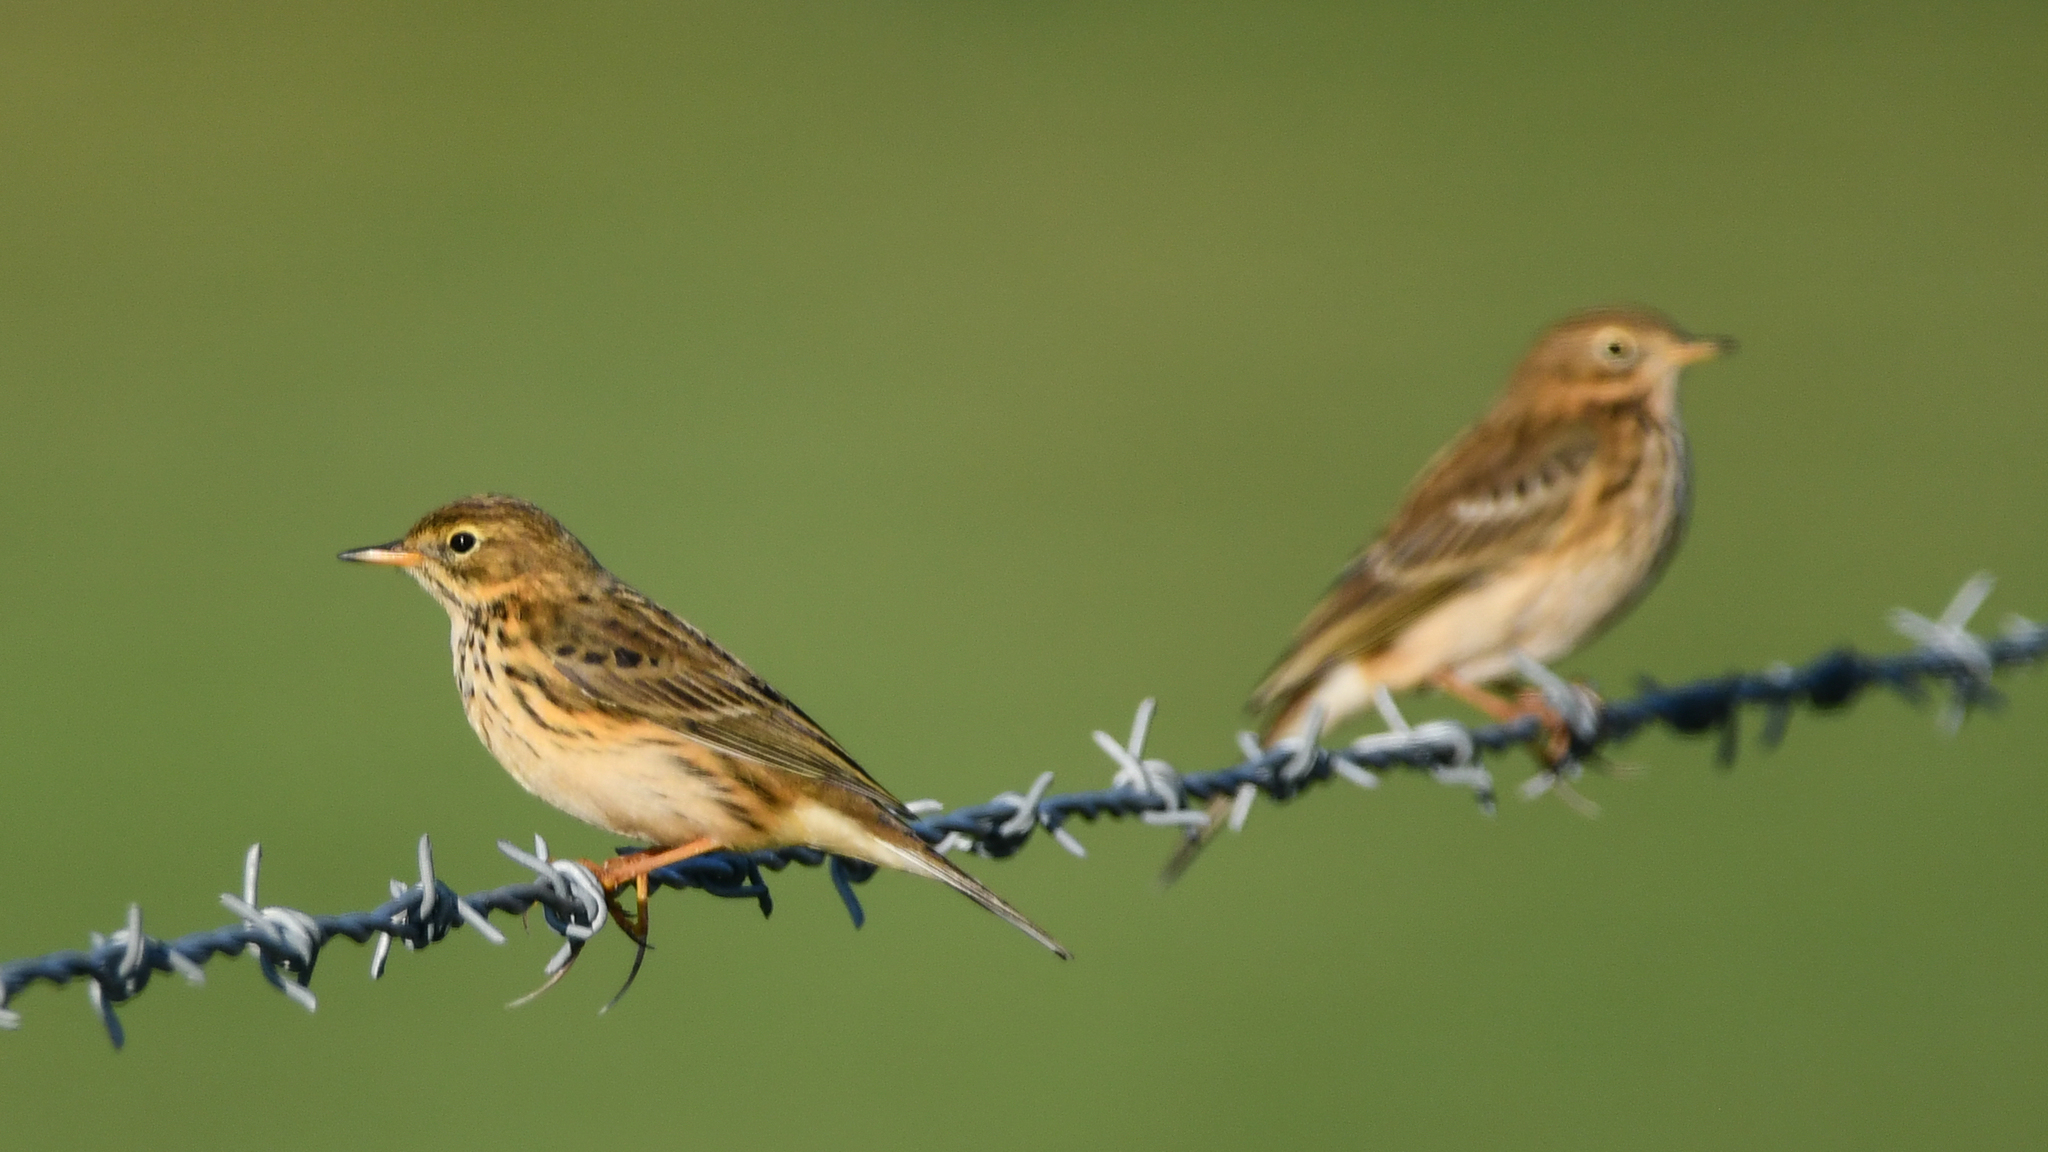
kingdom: Animalia
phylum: Chordata
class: Aves
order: Passeriformes
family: Motacillidae
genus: Anthus
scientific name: Anthus pratensis
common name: Meadow pipit
